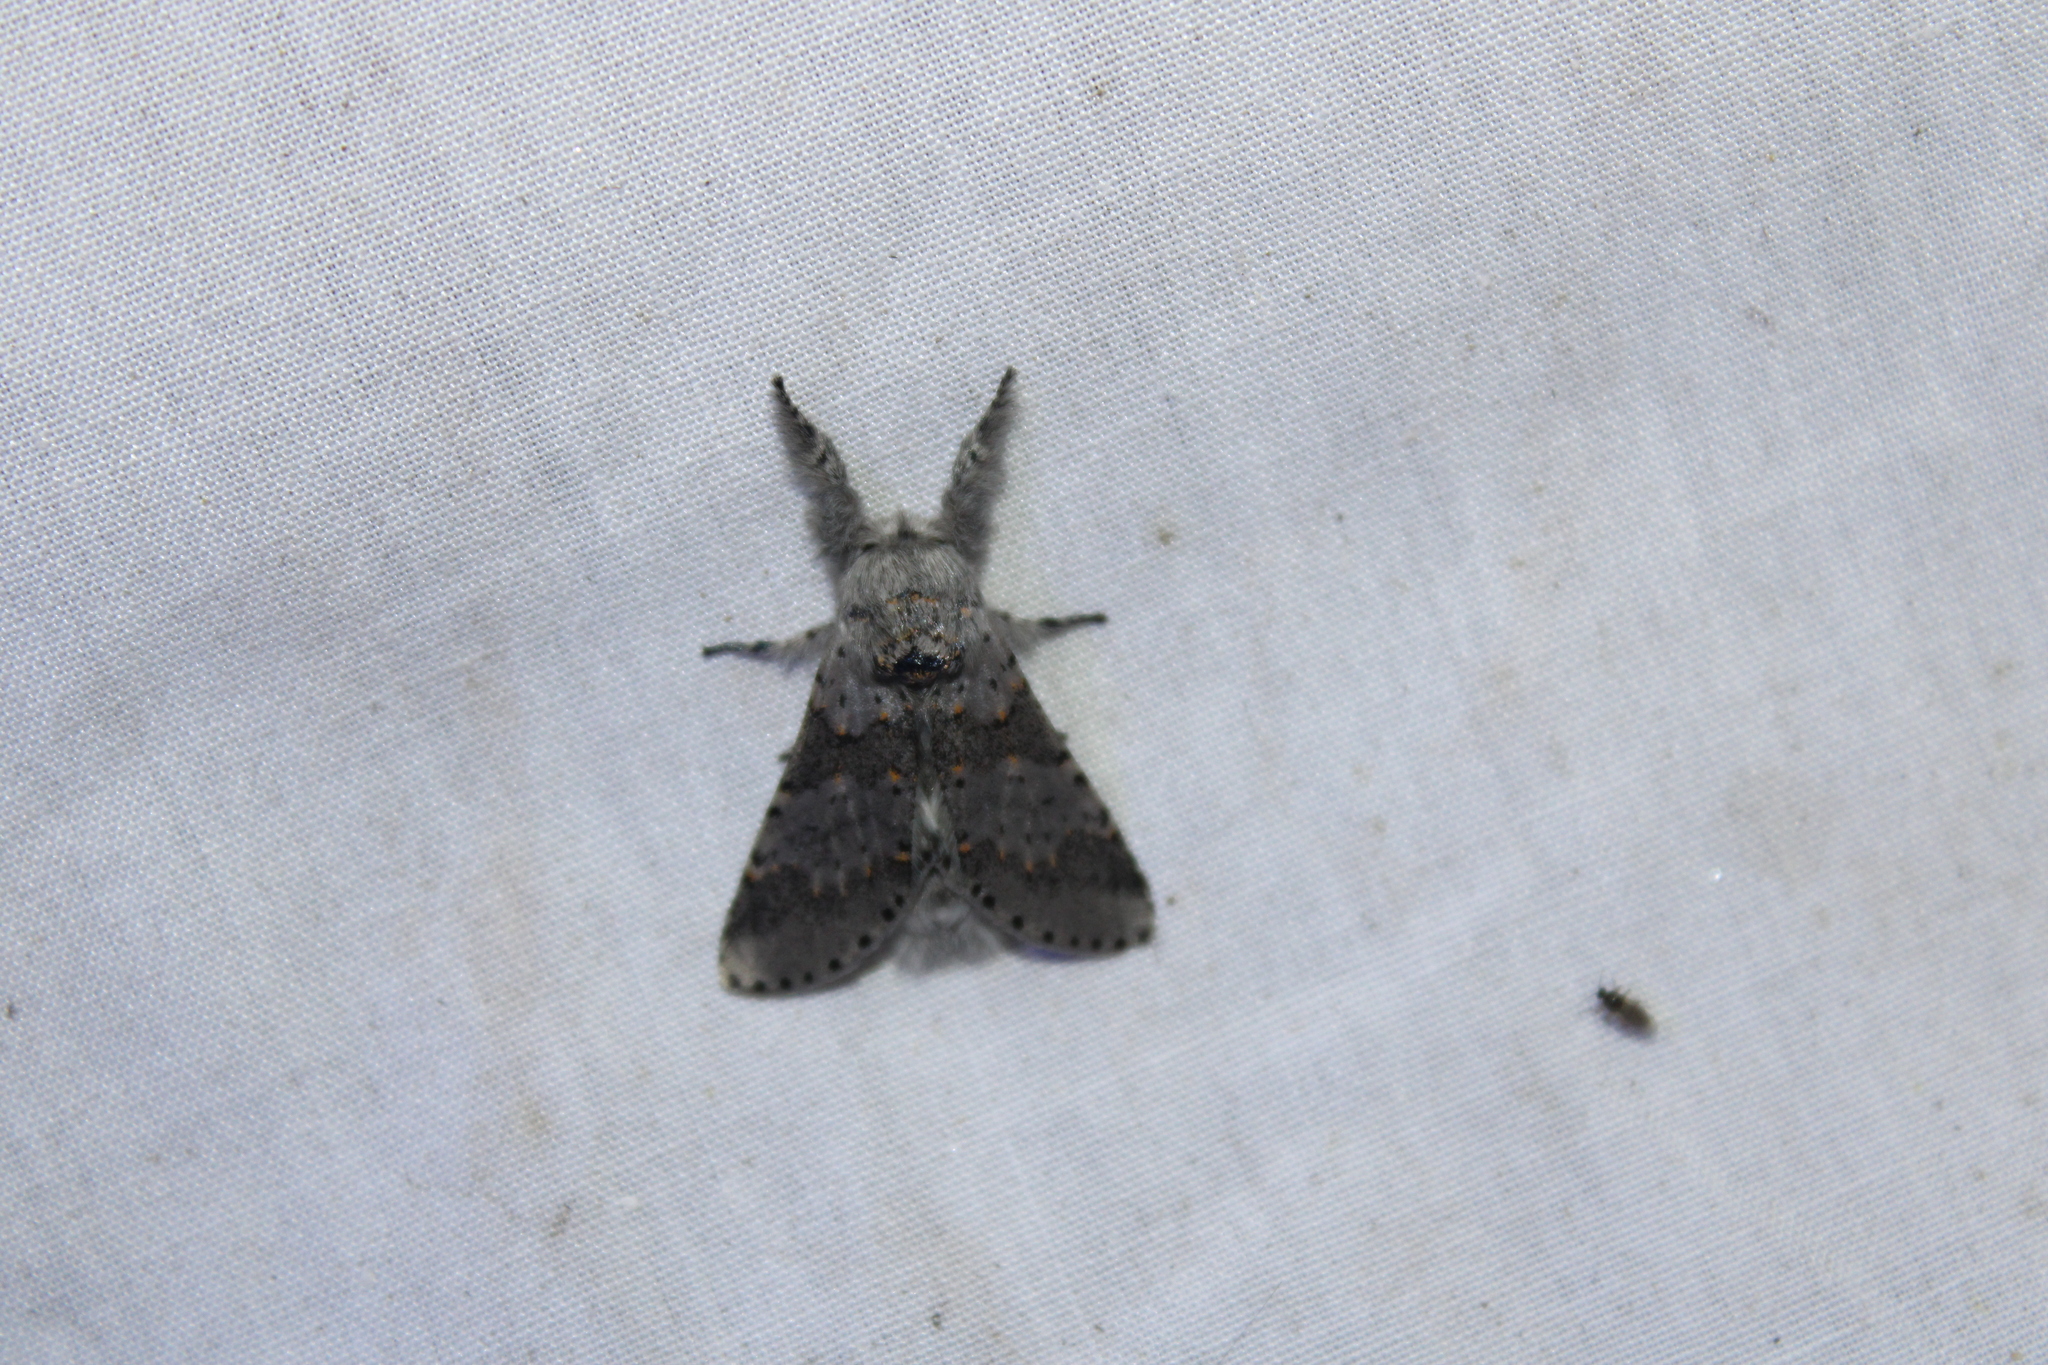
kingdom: Animalia
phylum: Arthropoda
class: Insecta
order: Lepidoptera
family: Notodontidae
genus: Furcula
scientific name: Furcula cinerea
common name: Gray furcula
